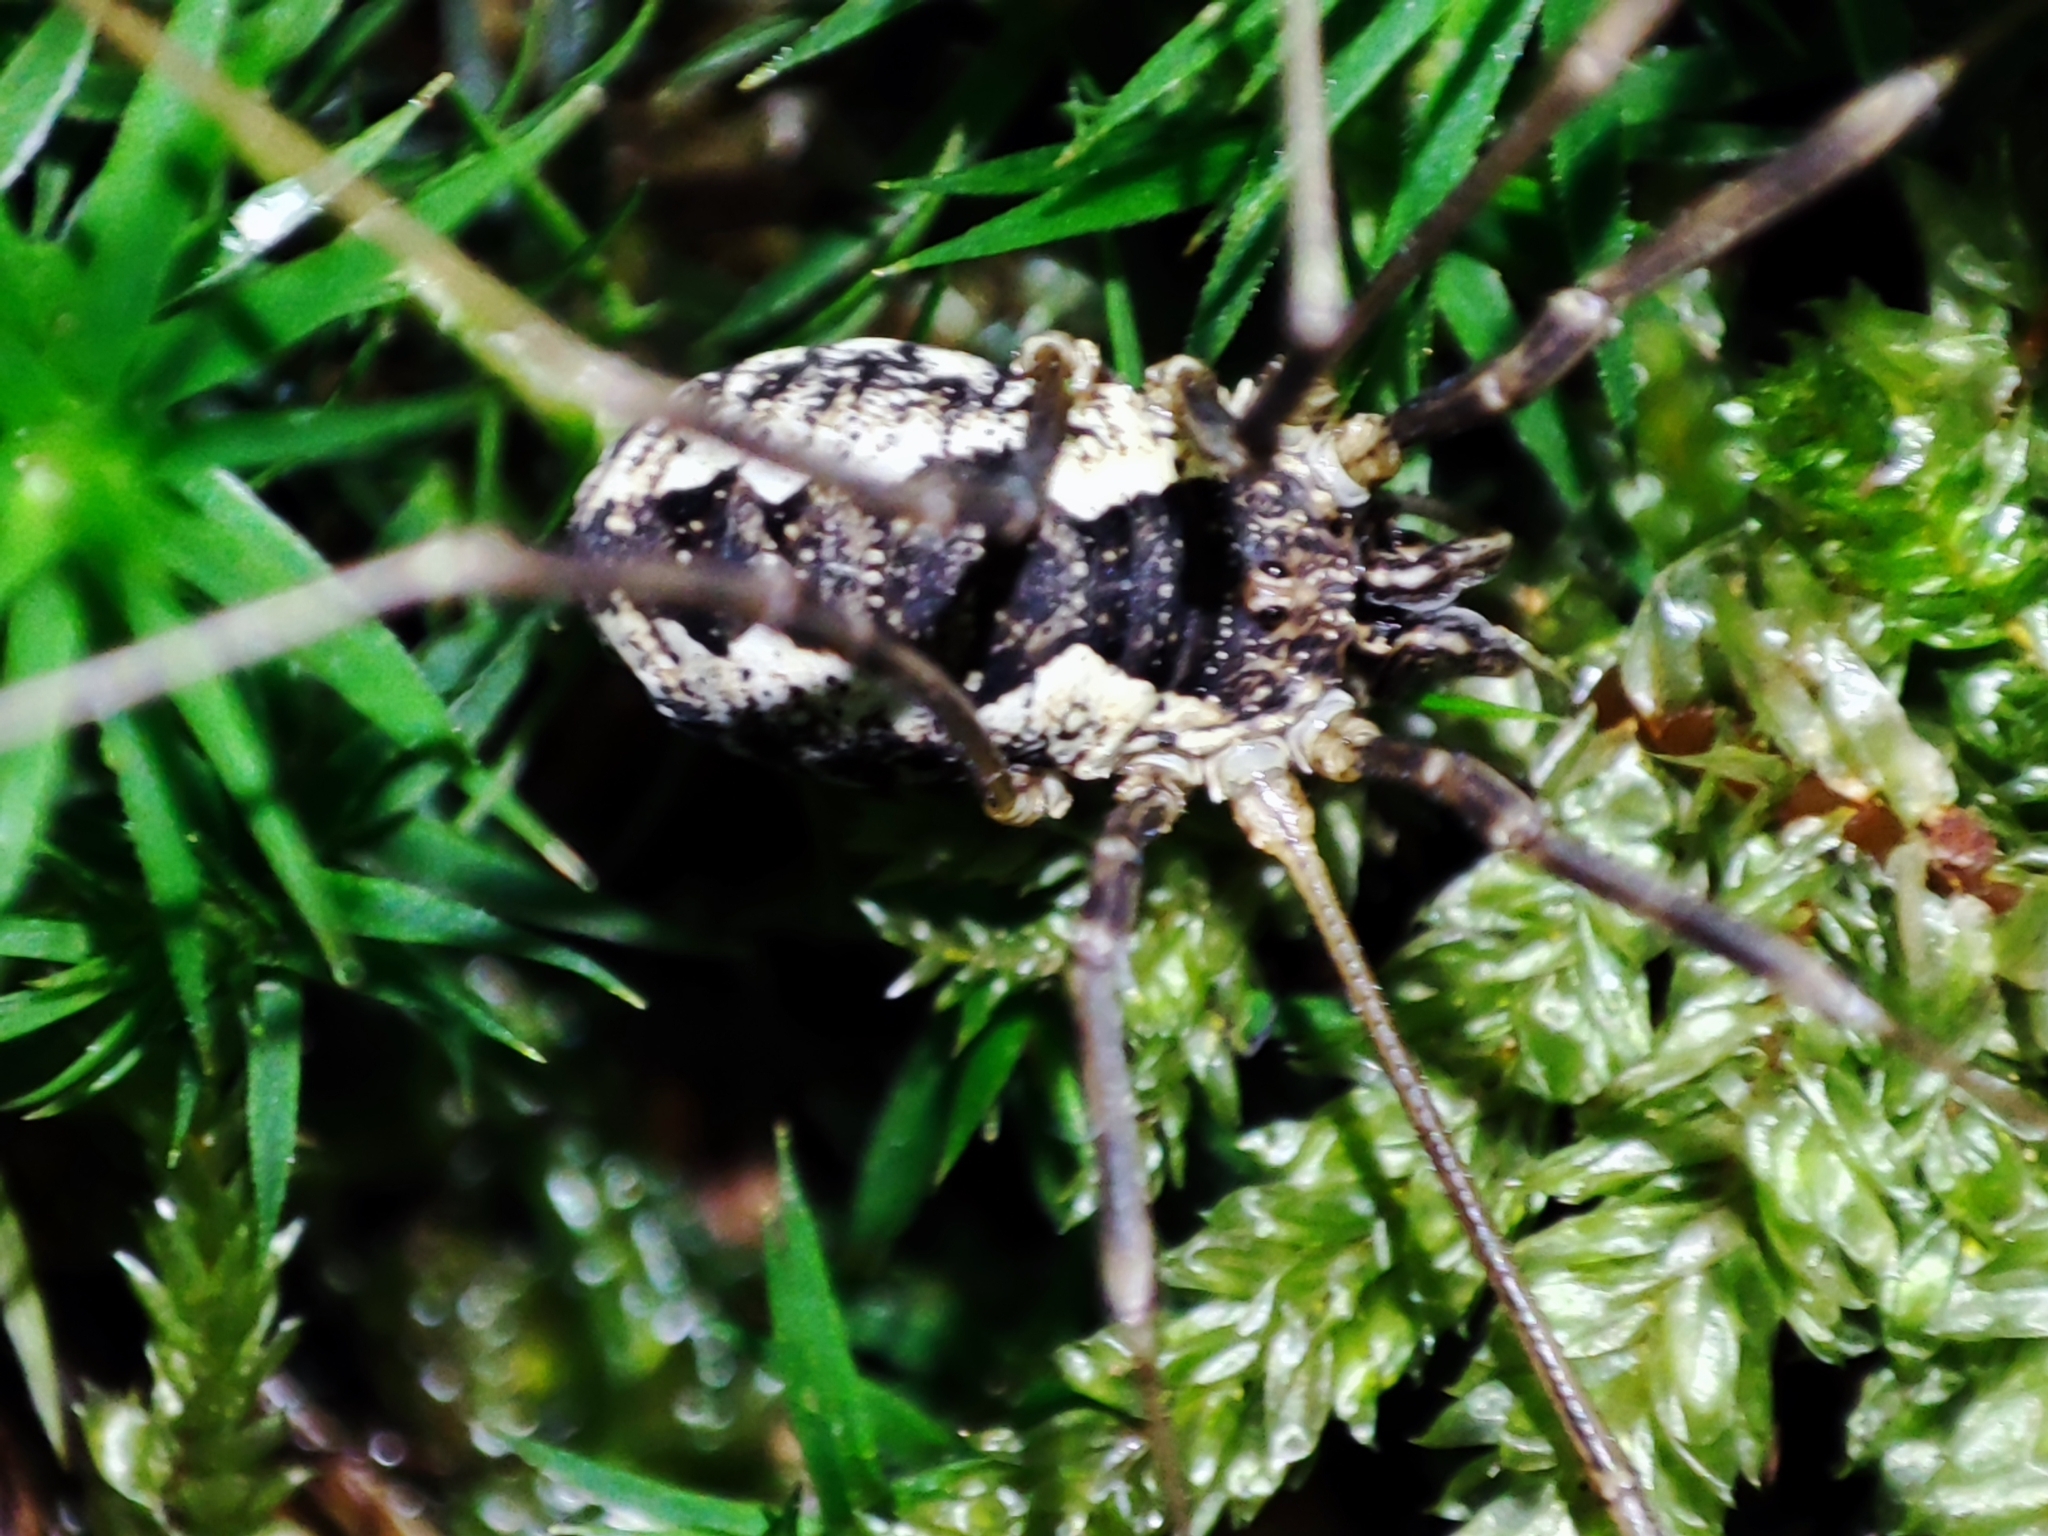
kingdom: Animalia
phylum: Arthropoda
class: Arachnida
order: Opiliones
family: Phalangiidae
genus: Mitopus
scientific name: Mitopus morio
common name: Saddleback harvestman
